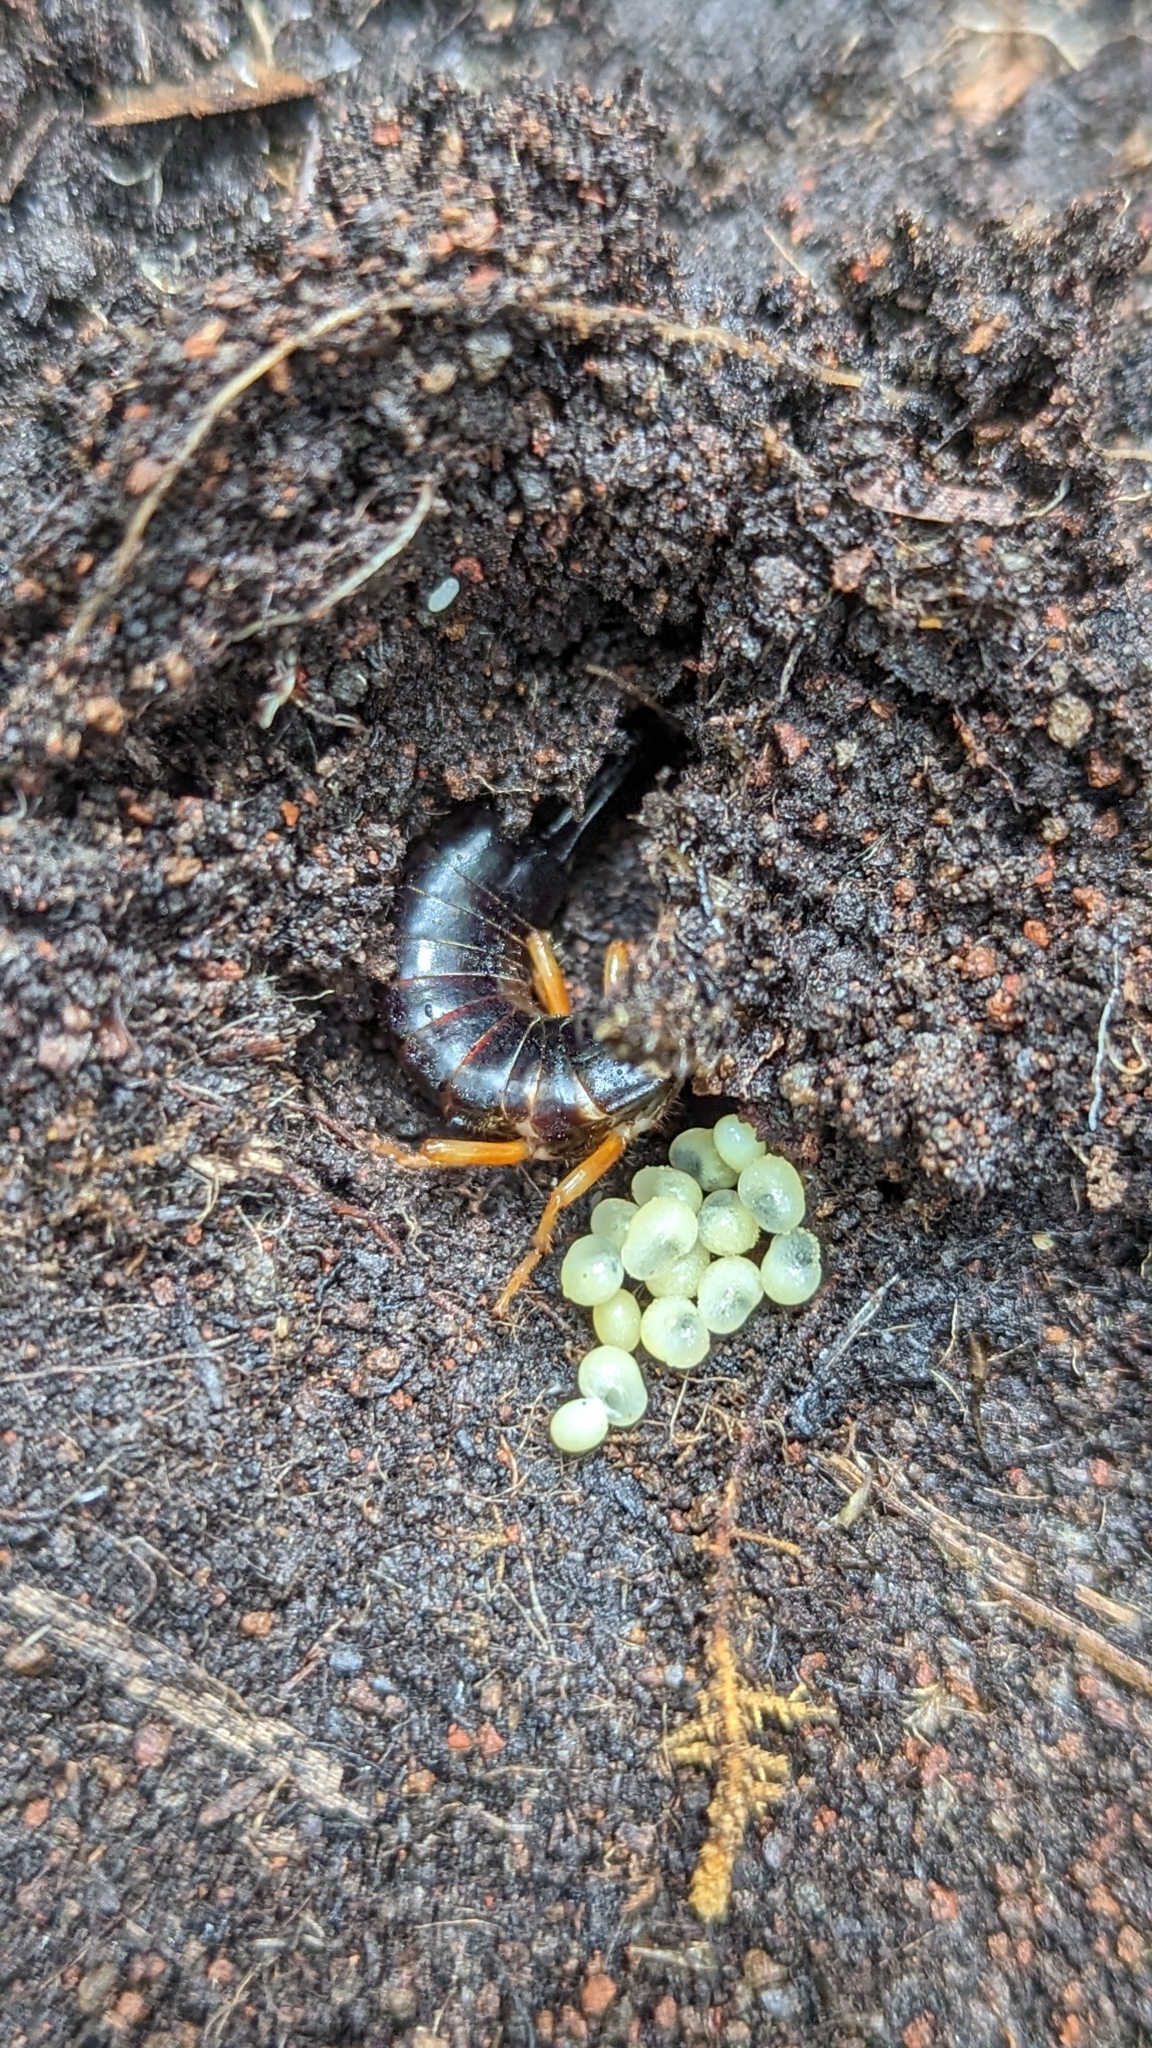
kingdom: Animalia
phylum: Arthropoda
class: Insecta
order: Dermaptera
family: Anisolabididae
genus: Anisolabis
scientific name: Anisolabis littorea
